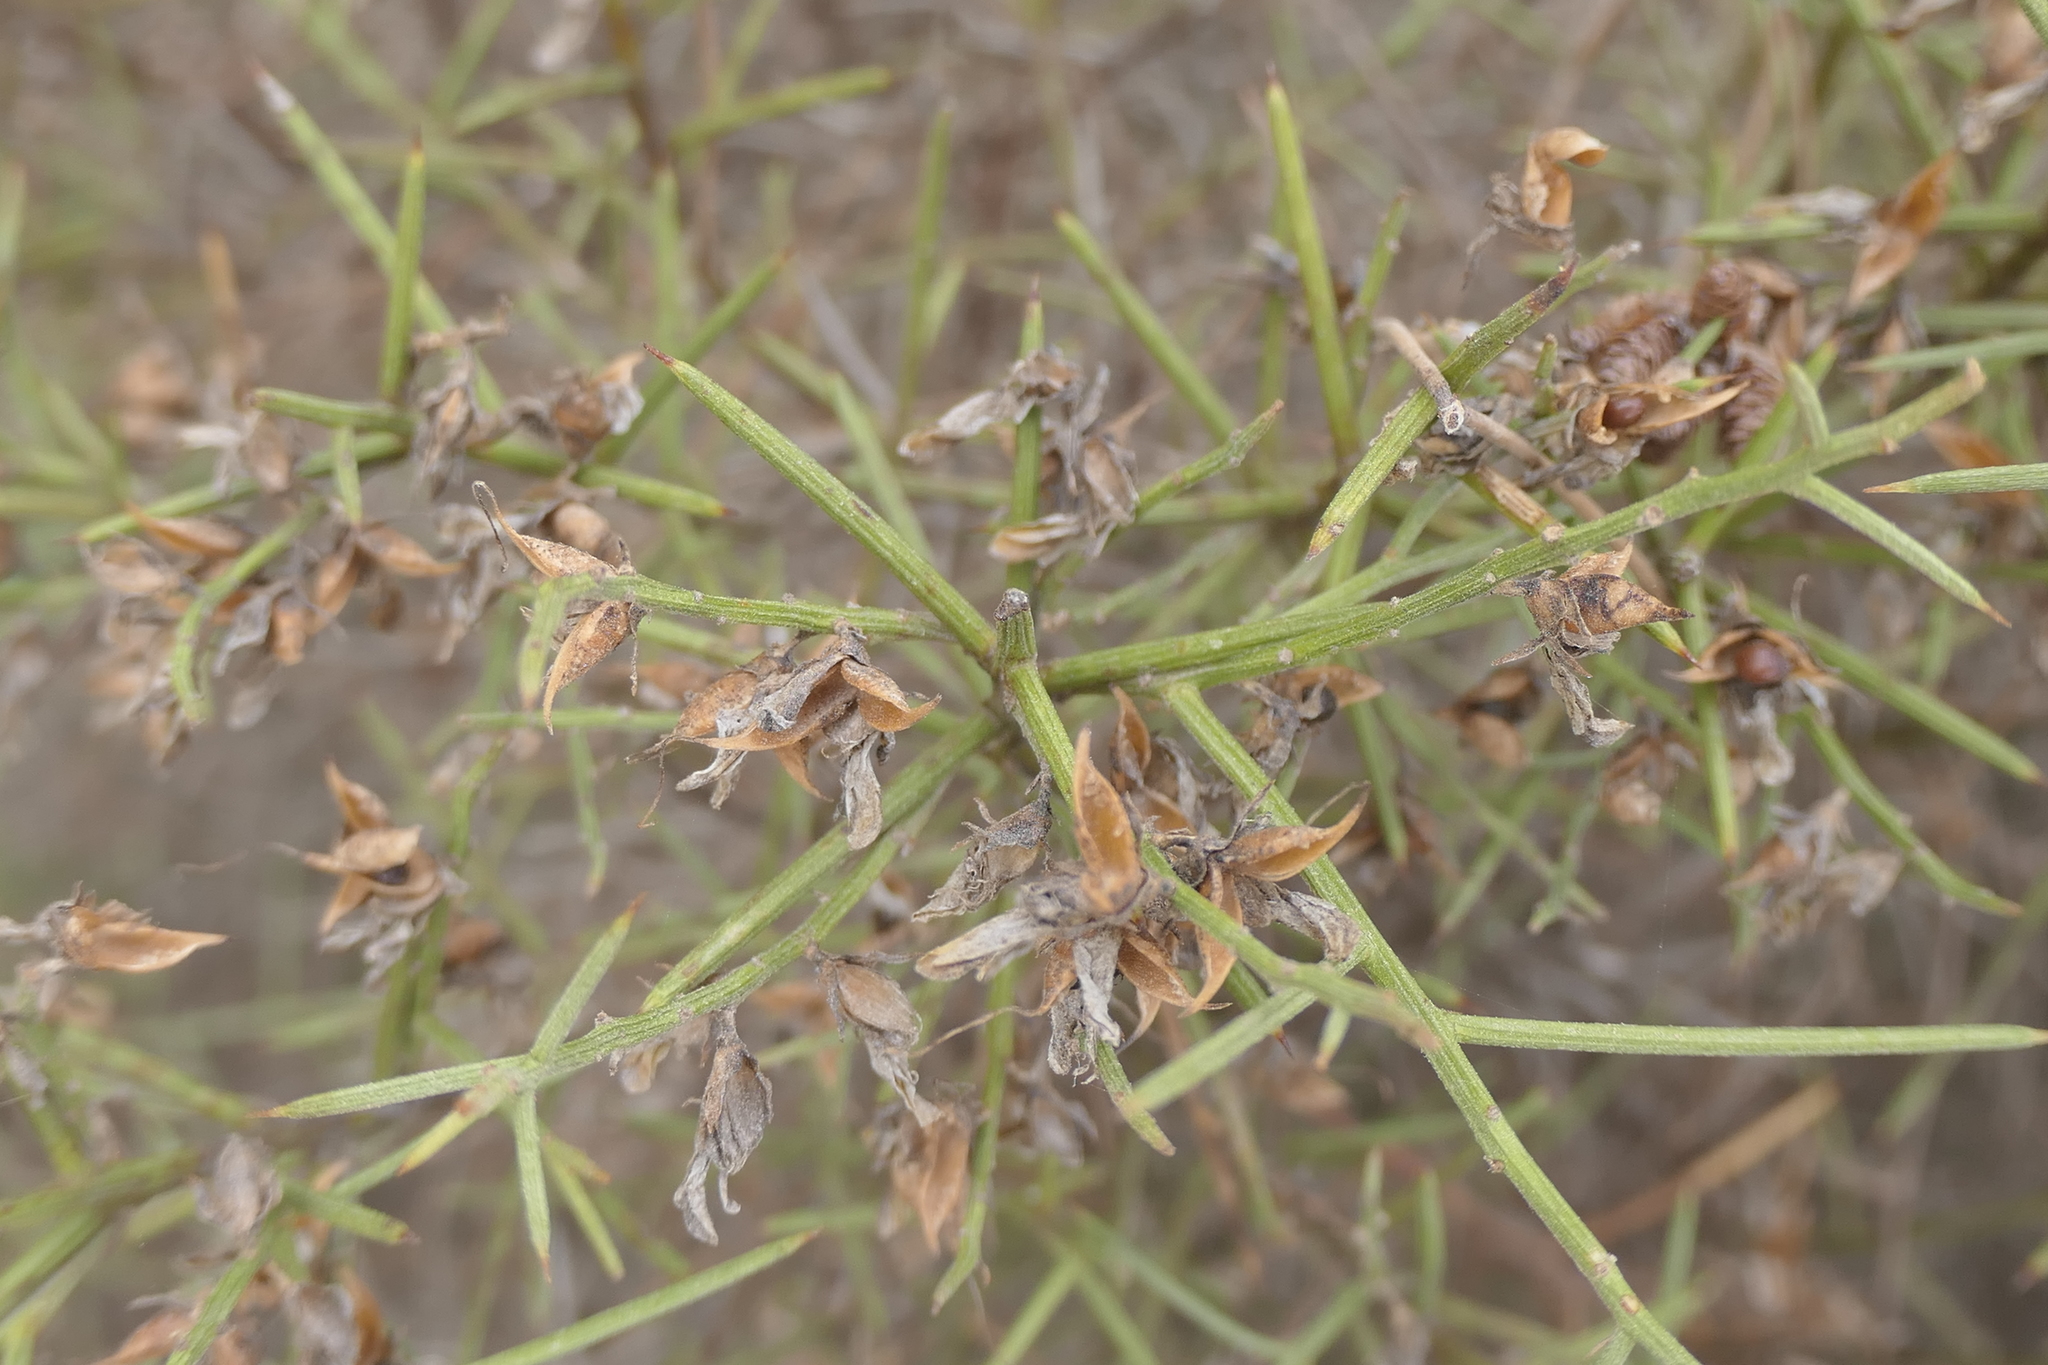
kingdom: Plantae
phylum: Tracheophyta
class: Magnoliopsida
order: Fabales
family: Fabaceae
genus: Genista
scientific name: Genista tricuspidata
